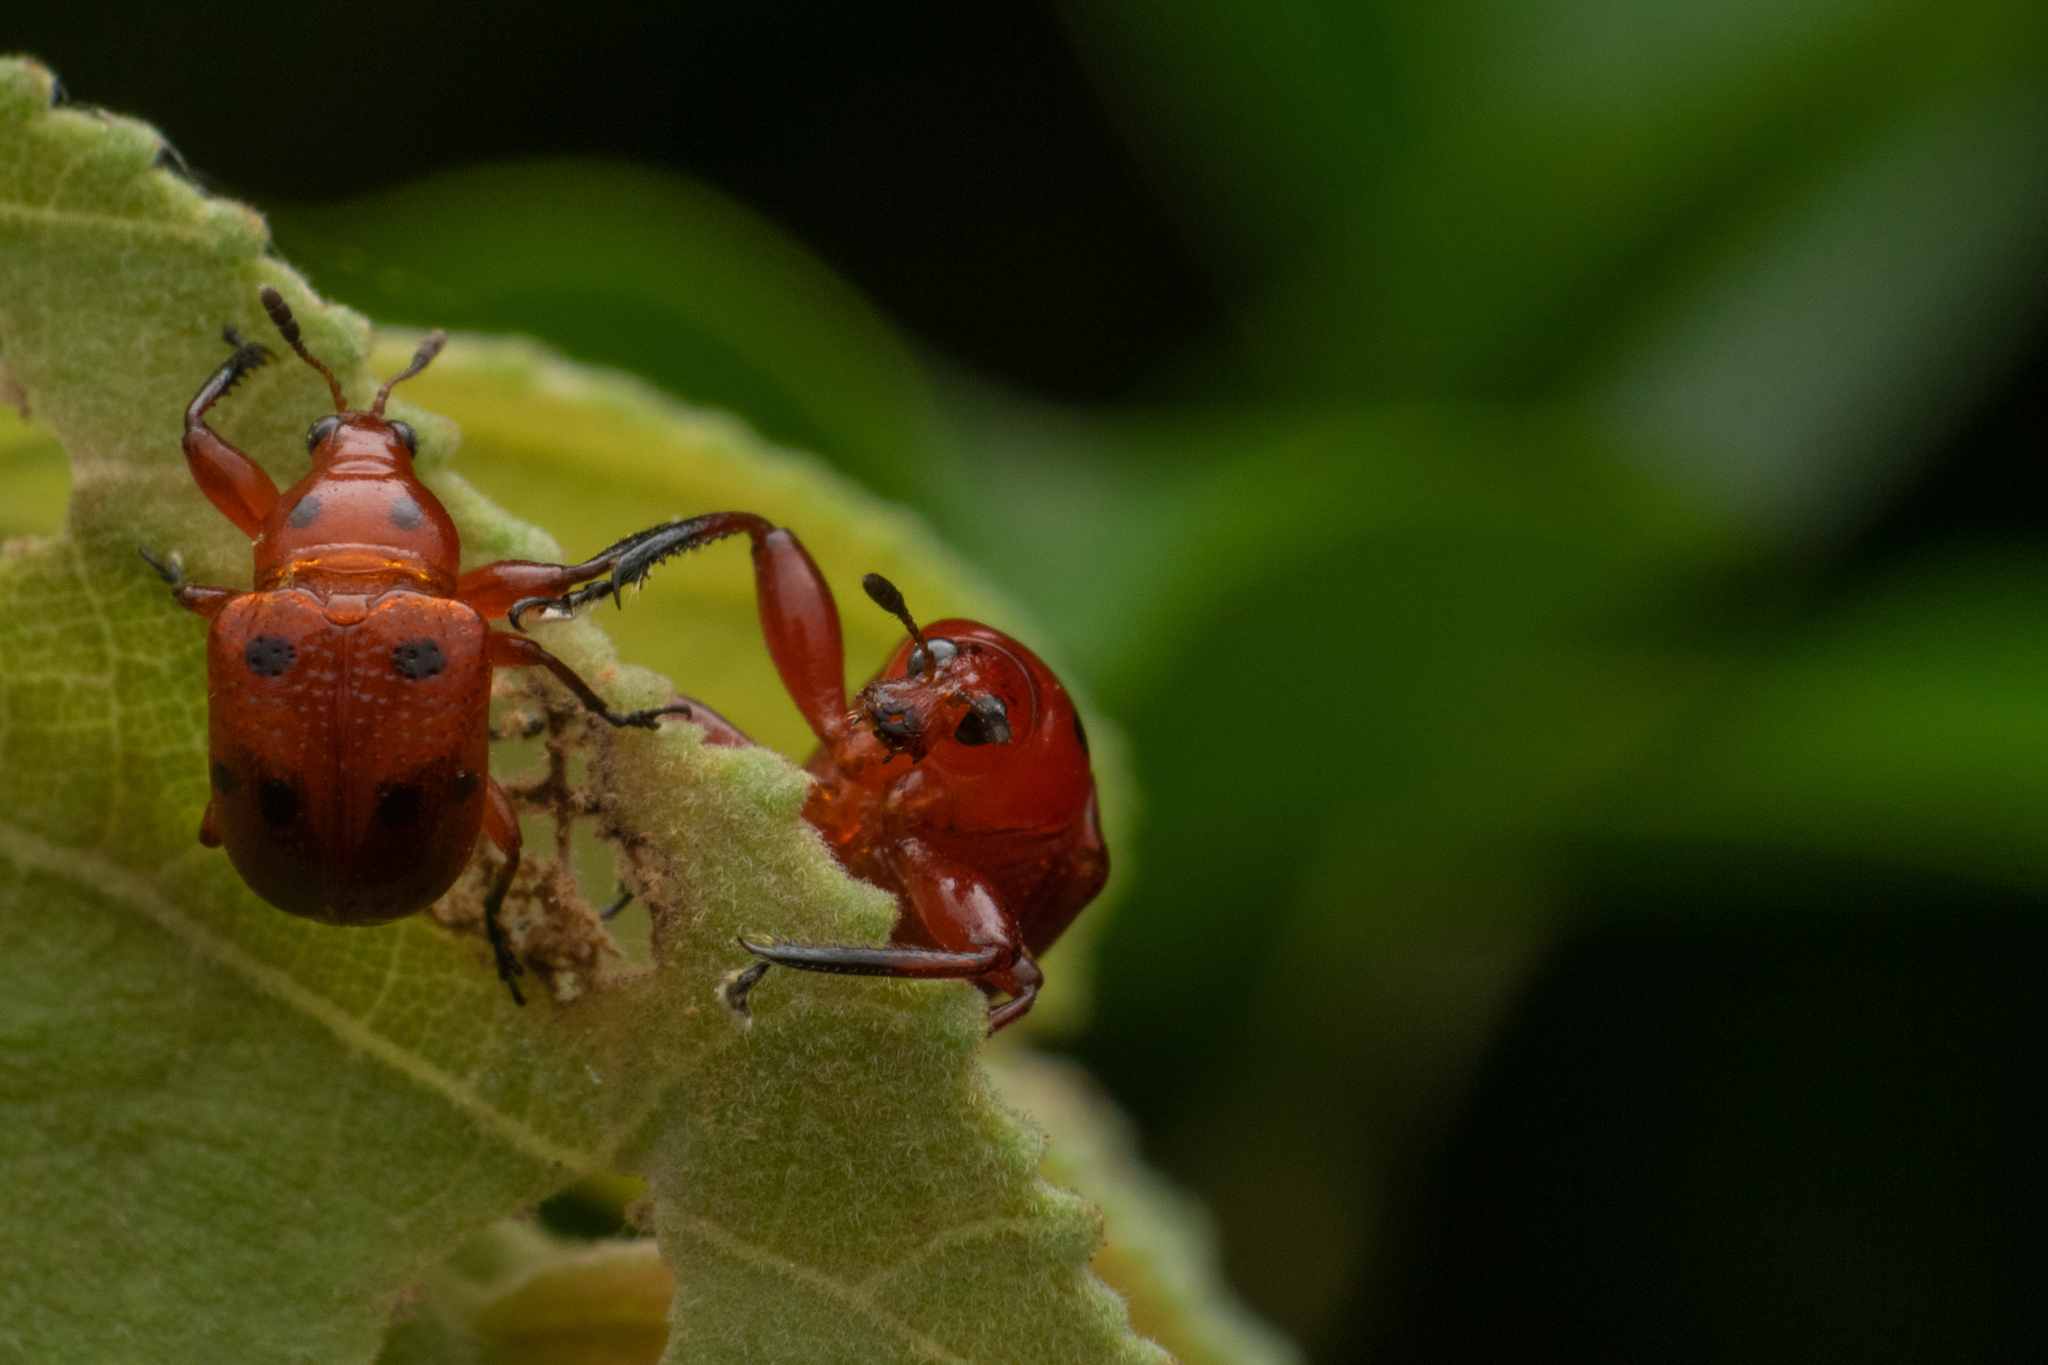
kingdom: Animalia
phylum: Arthropoda
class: Insecta
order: Coleoptera
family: Attelabidae
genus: Henicolabus
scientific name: Henicolabus octomaculatus
